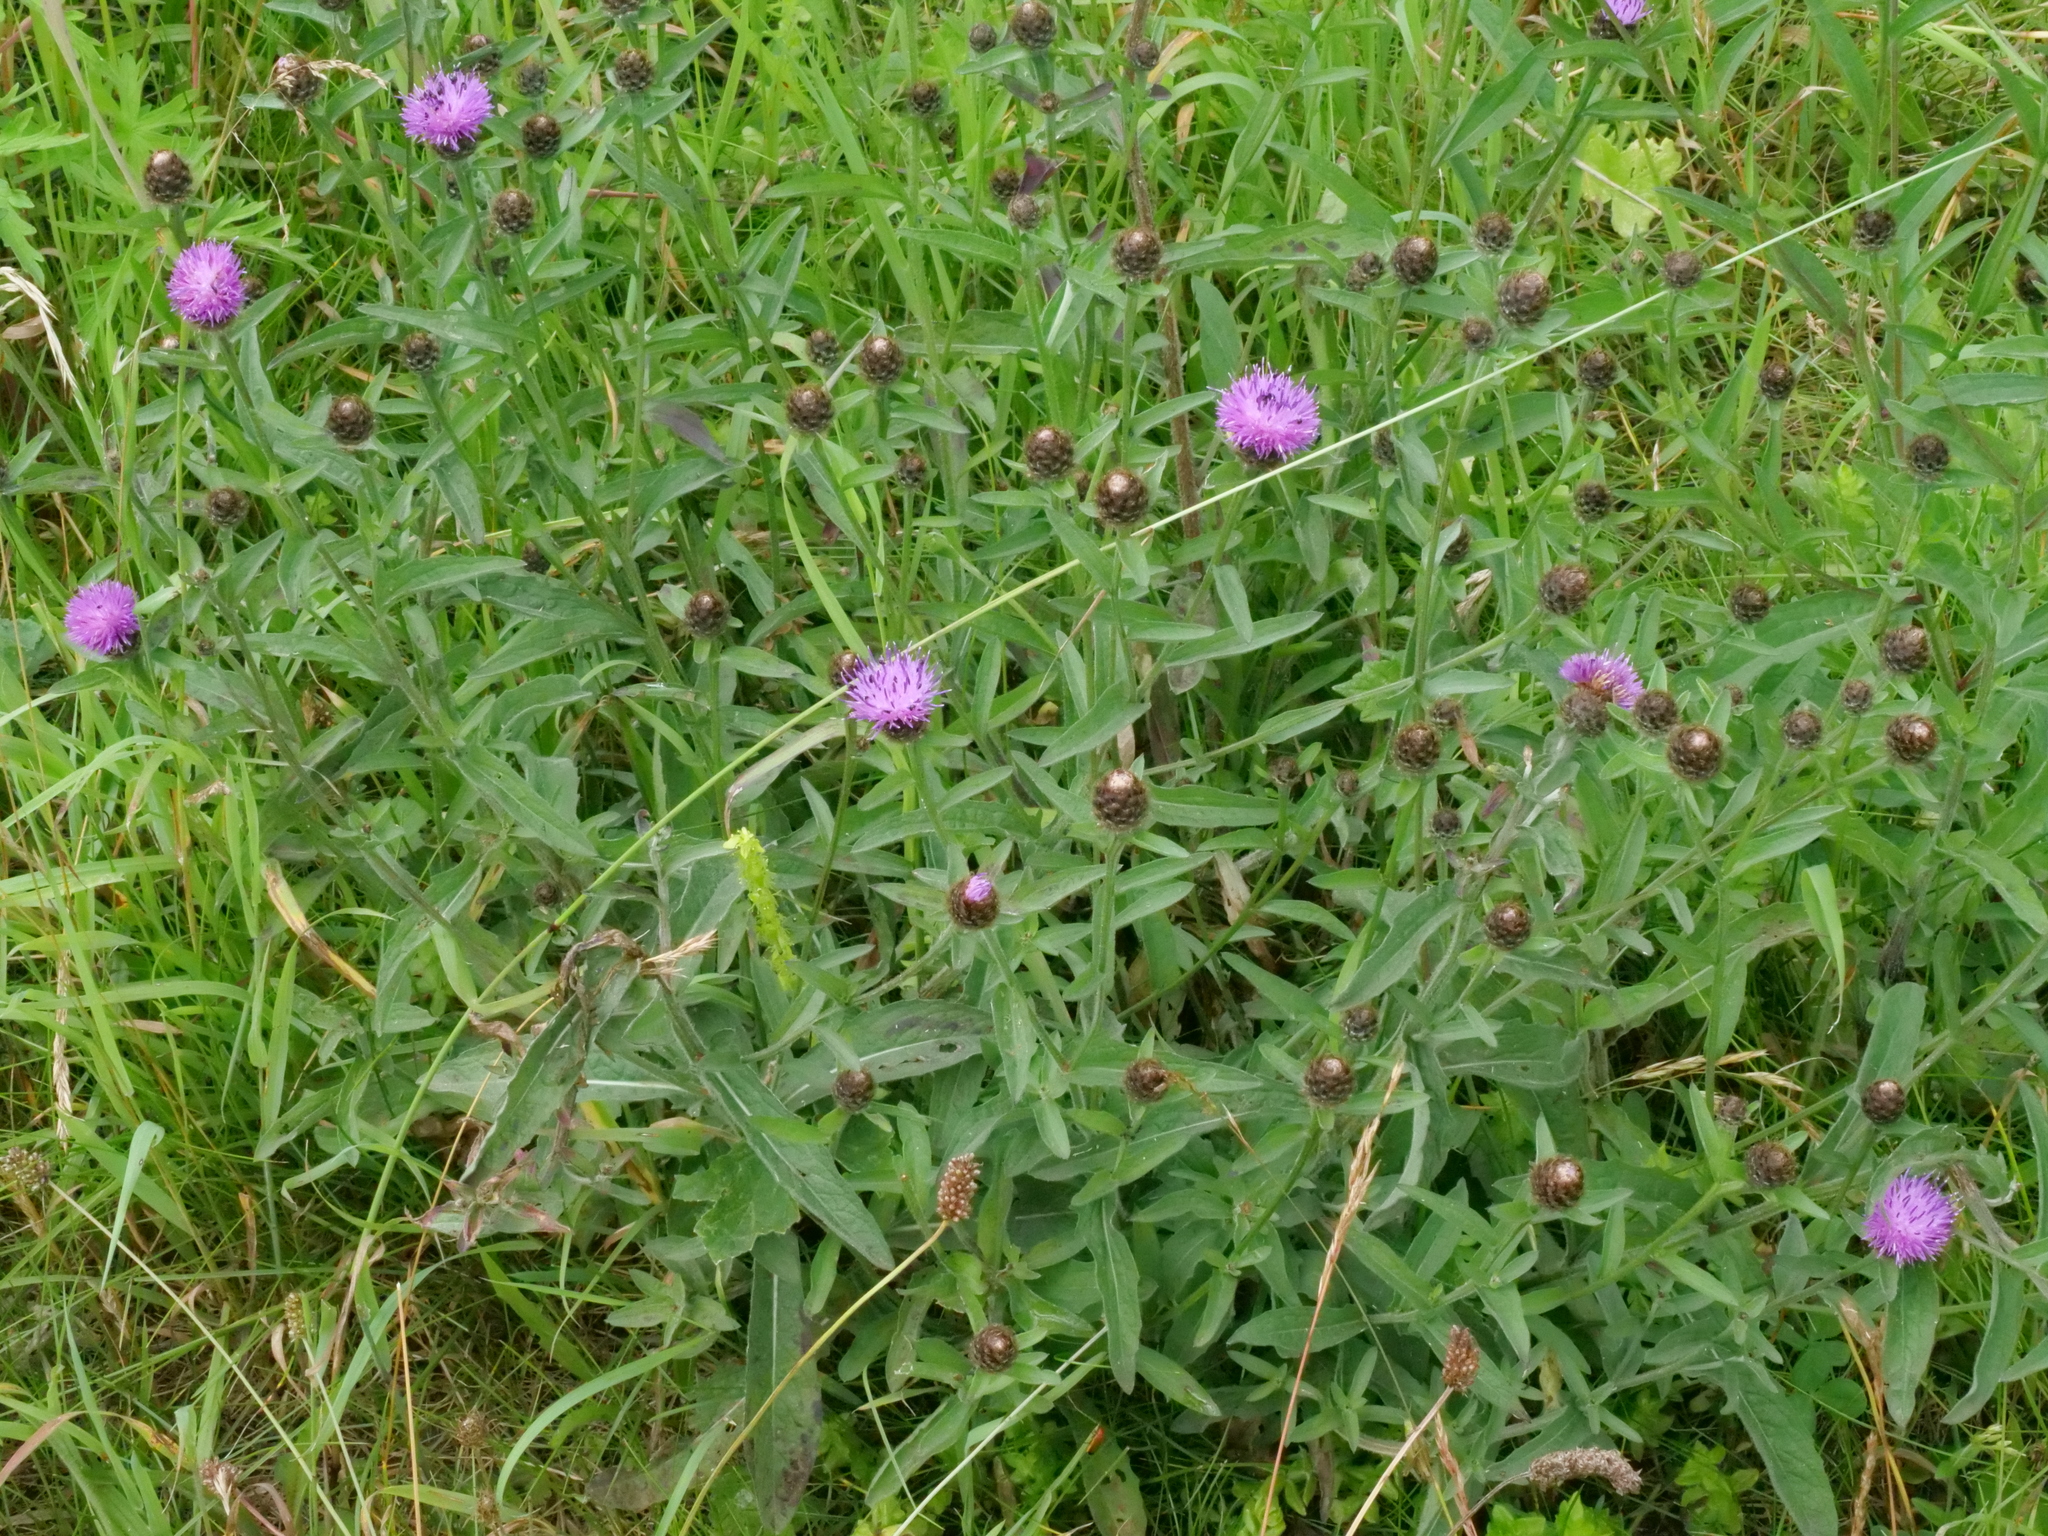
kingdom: Plantae
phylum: Tracheophyta
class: Magnoliopsida
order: Asterales
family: Asteraceae
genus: Centaurea
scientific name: Centaurea nigra
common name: Lesser knapweed
